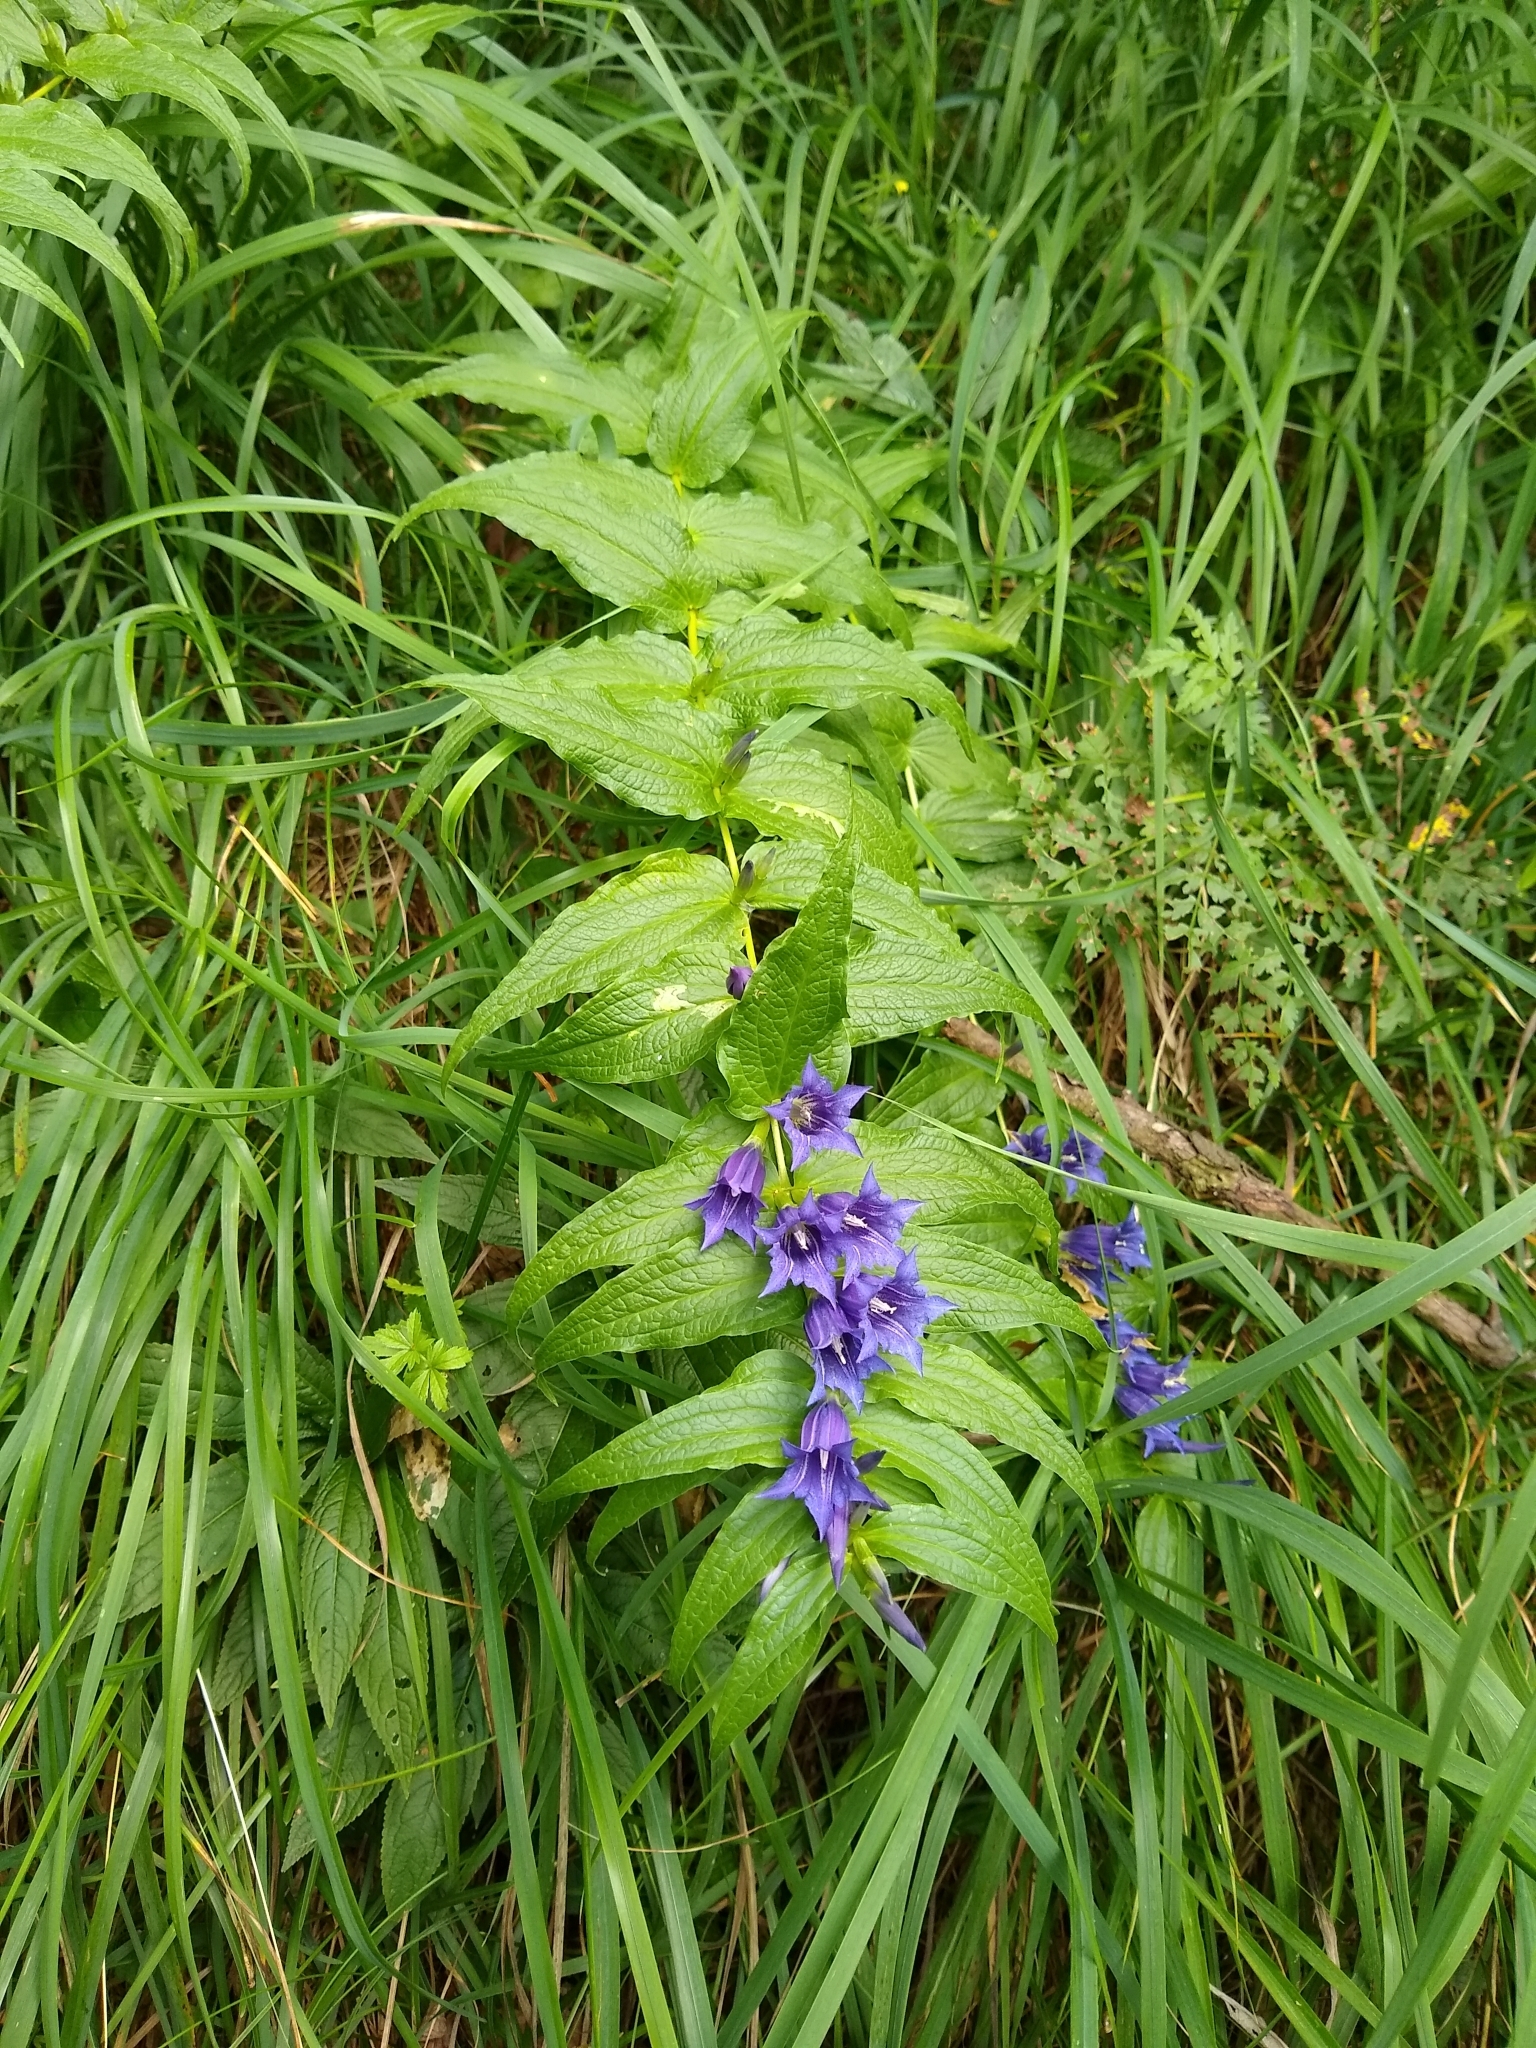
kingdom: Plantae
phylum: Tracheophyta
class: Magnoliopsida
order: Gentianales
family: Gentianaceae
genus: Gentiana
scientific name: Gentiana asclepiadea
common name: Willow gentian
